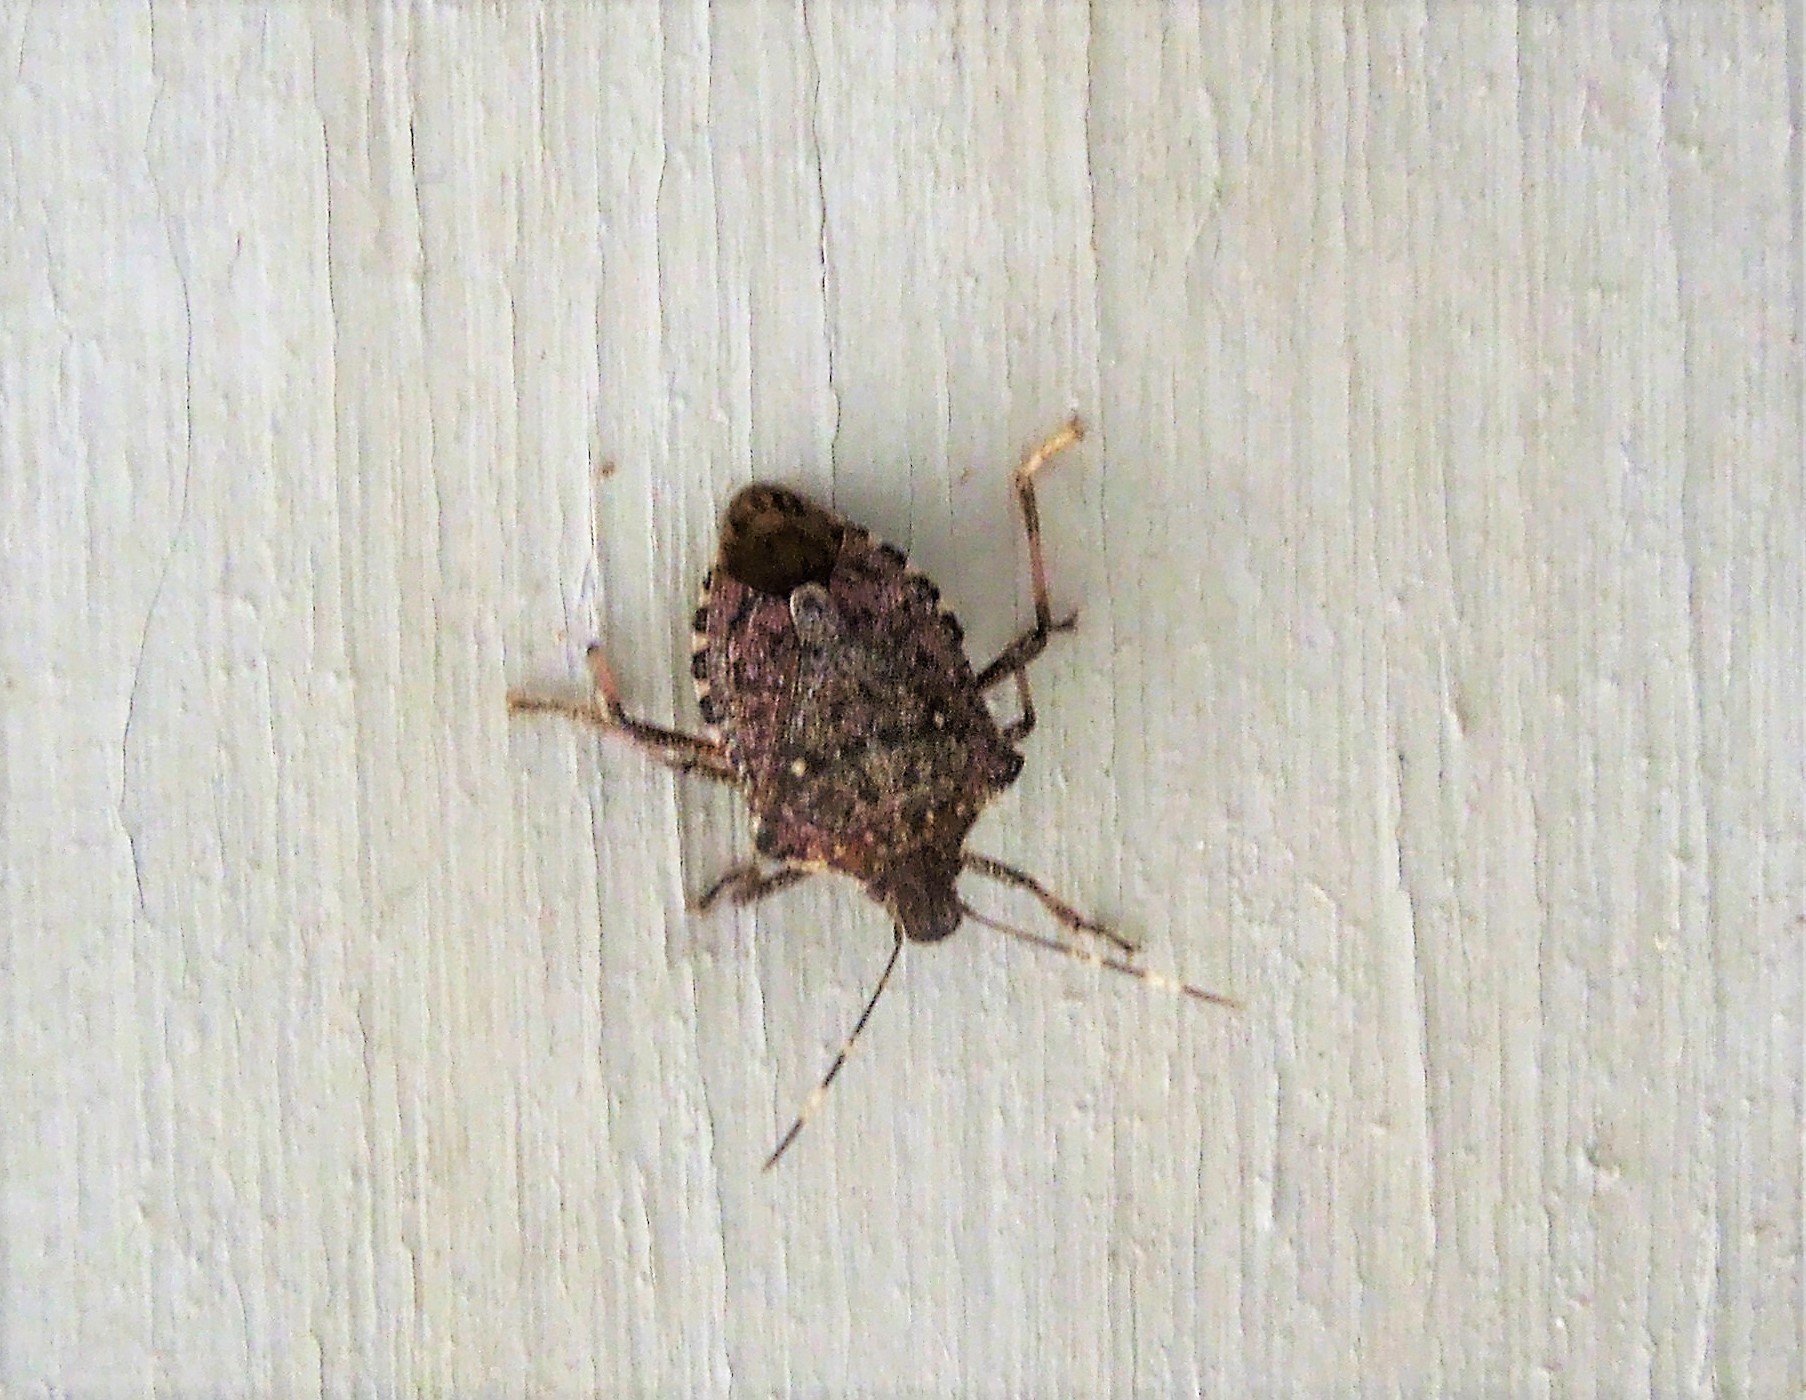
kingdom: Animalia
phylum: Arthropoda
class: Insecta
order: Hemiptera
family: Pentatomidae
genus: Halyomorpha
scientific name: Halyomorpha halys
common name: Brown marmorated stink bug
